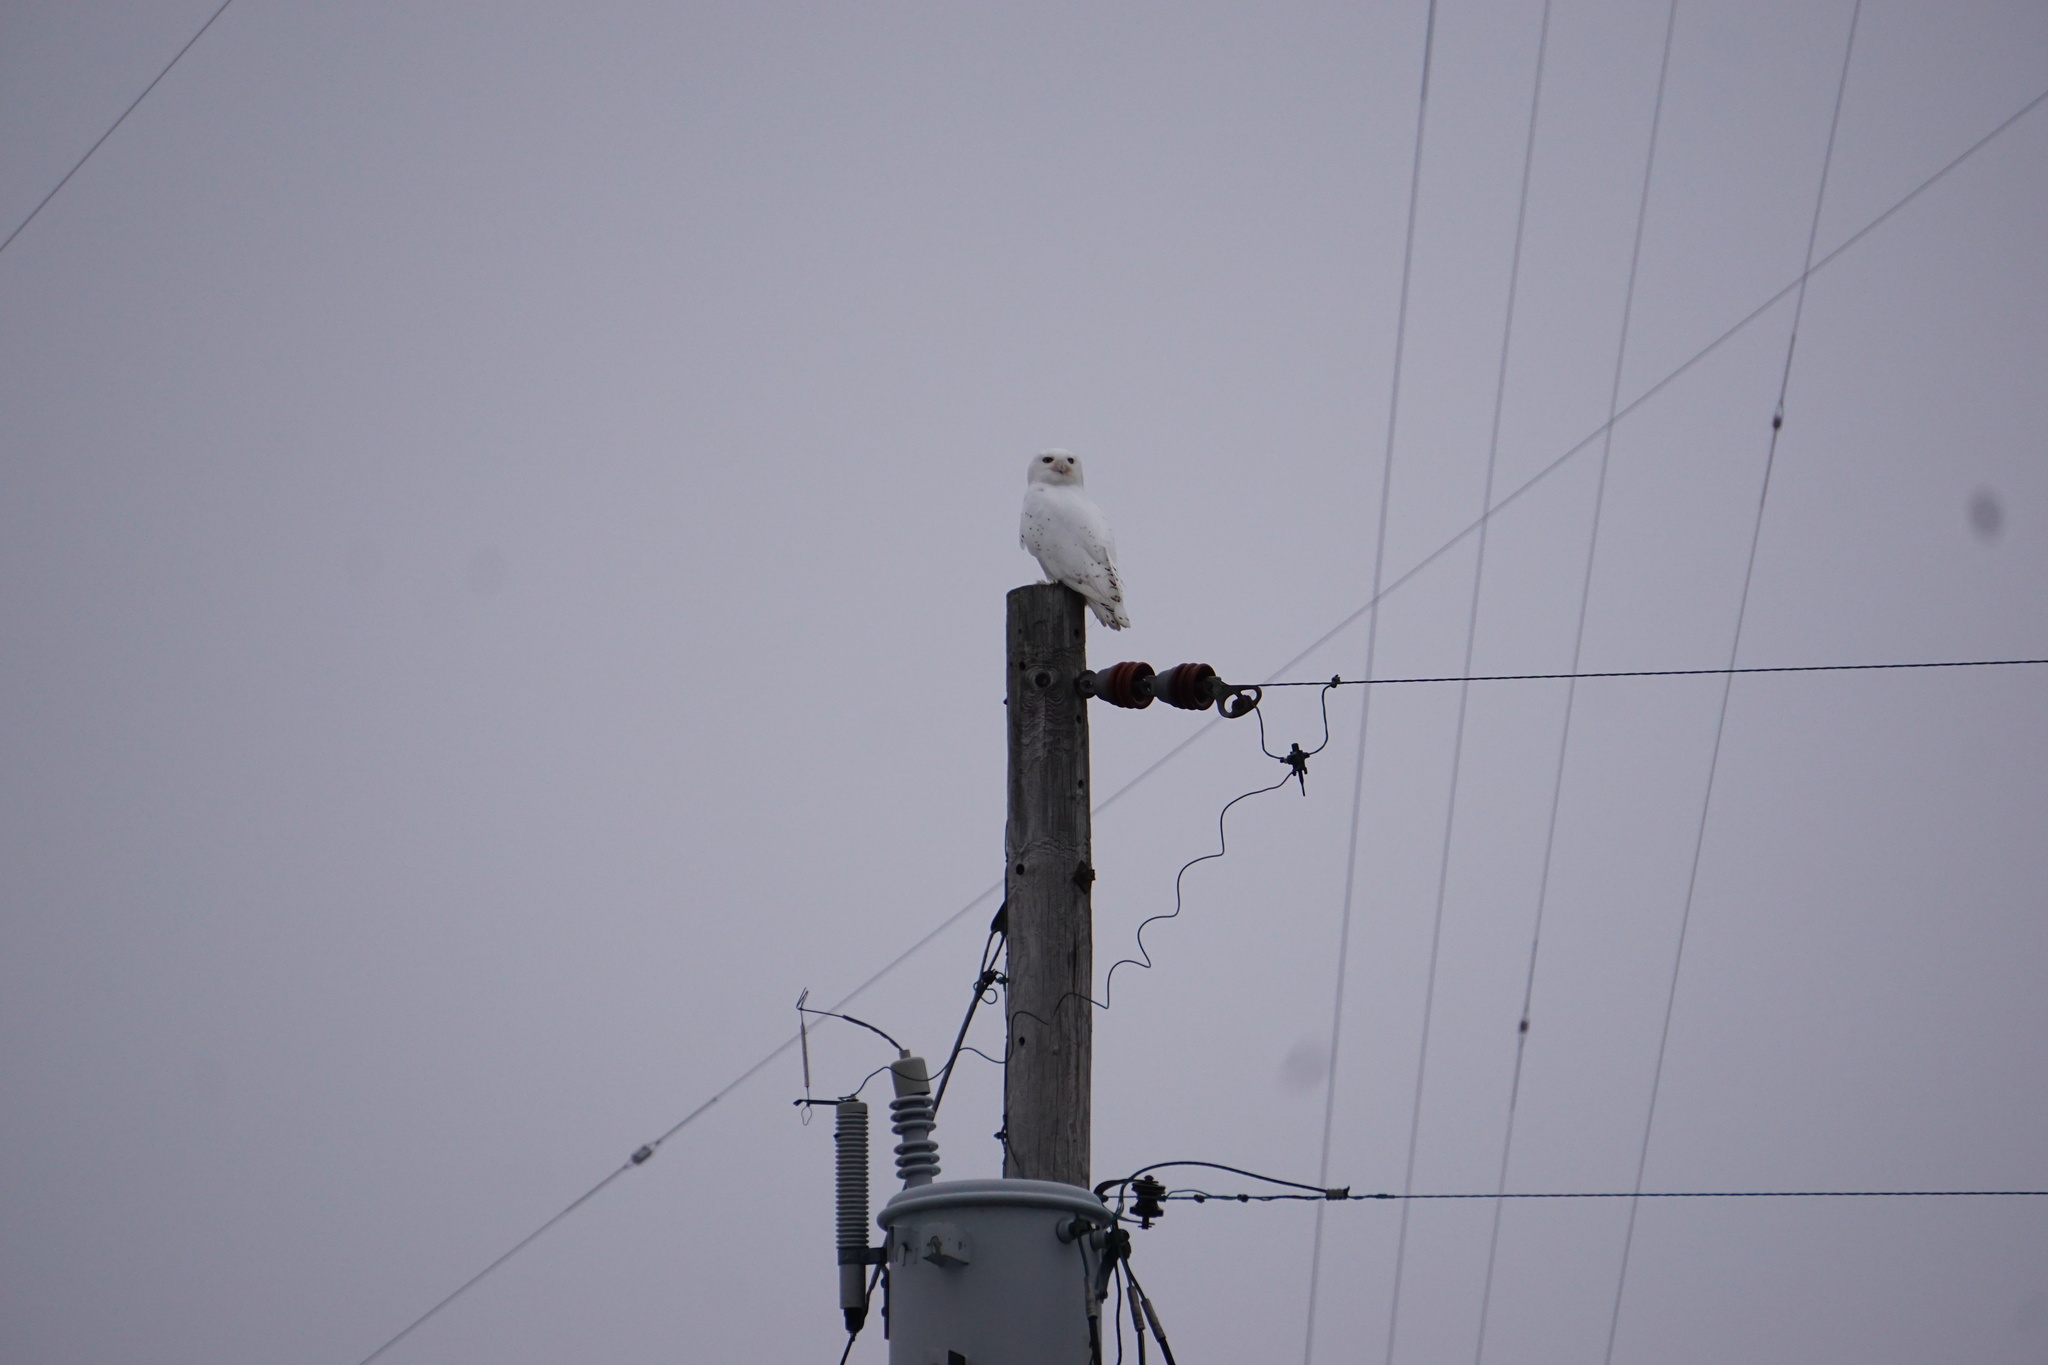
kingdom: Animalia
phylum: Chordata
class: Aves
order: Strigiformes
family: Strigidae
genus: Bubo
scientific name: Bubo scandiacus
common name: Snowy owl
